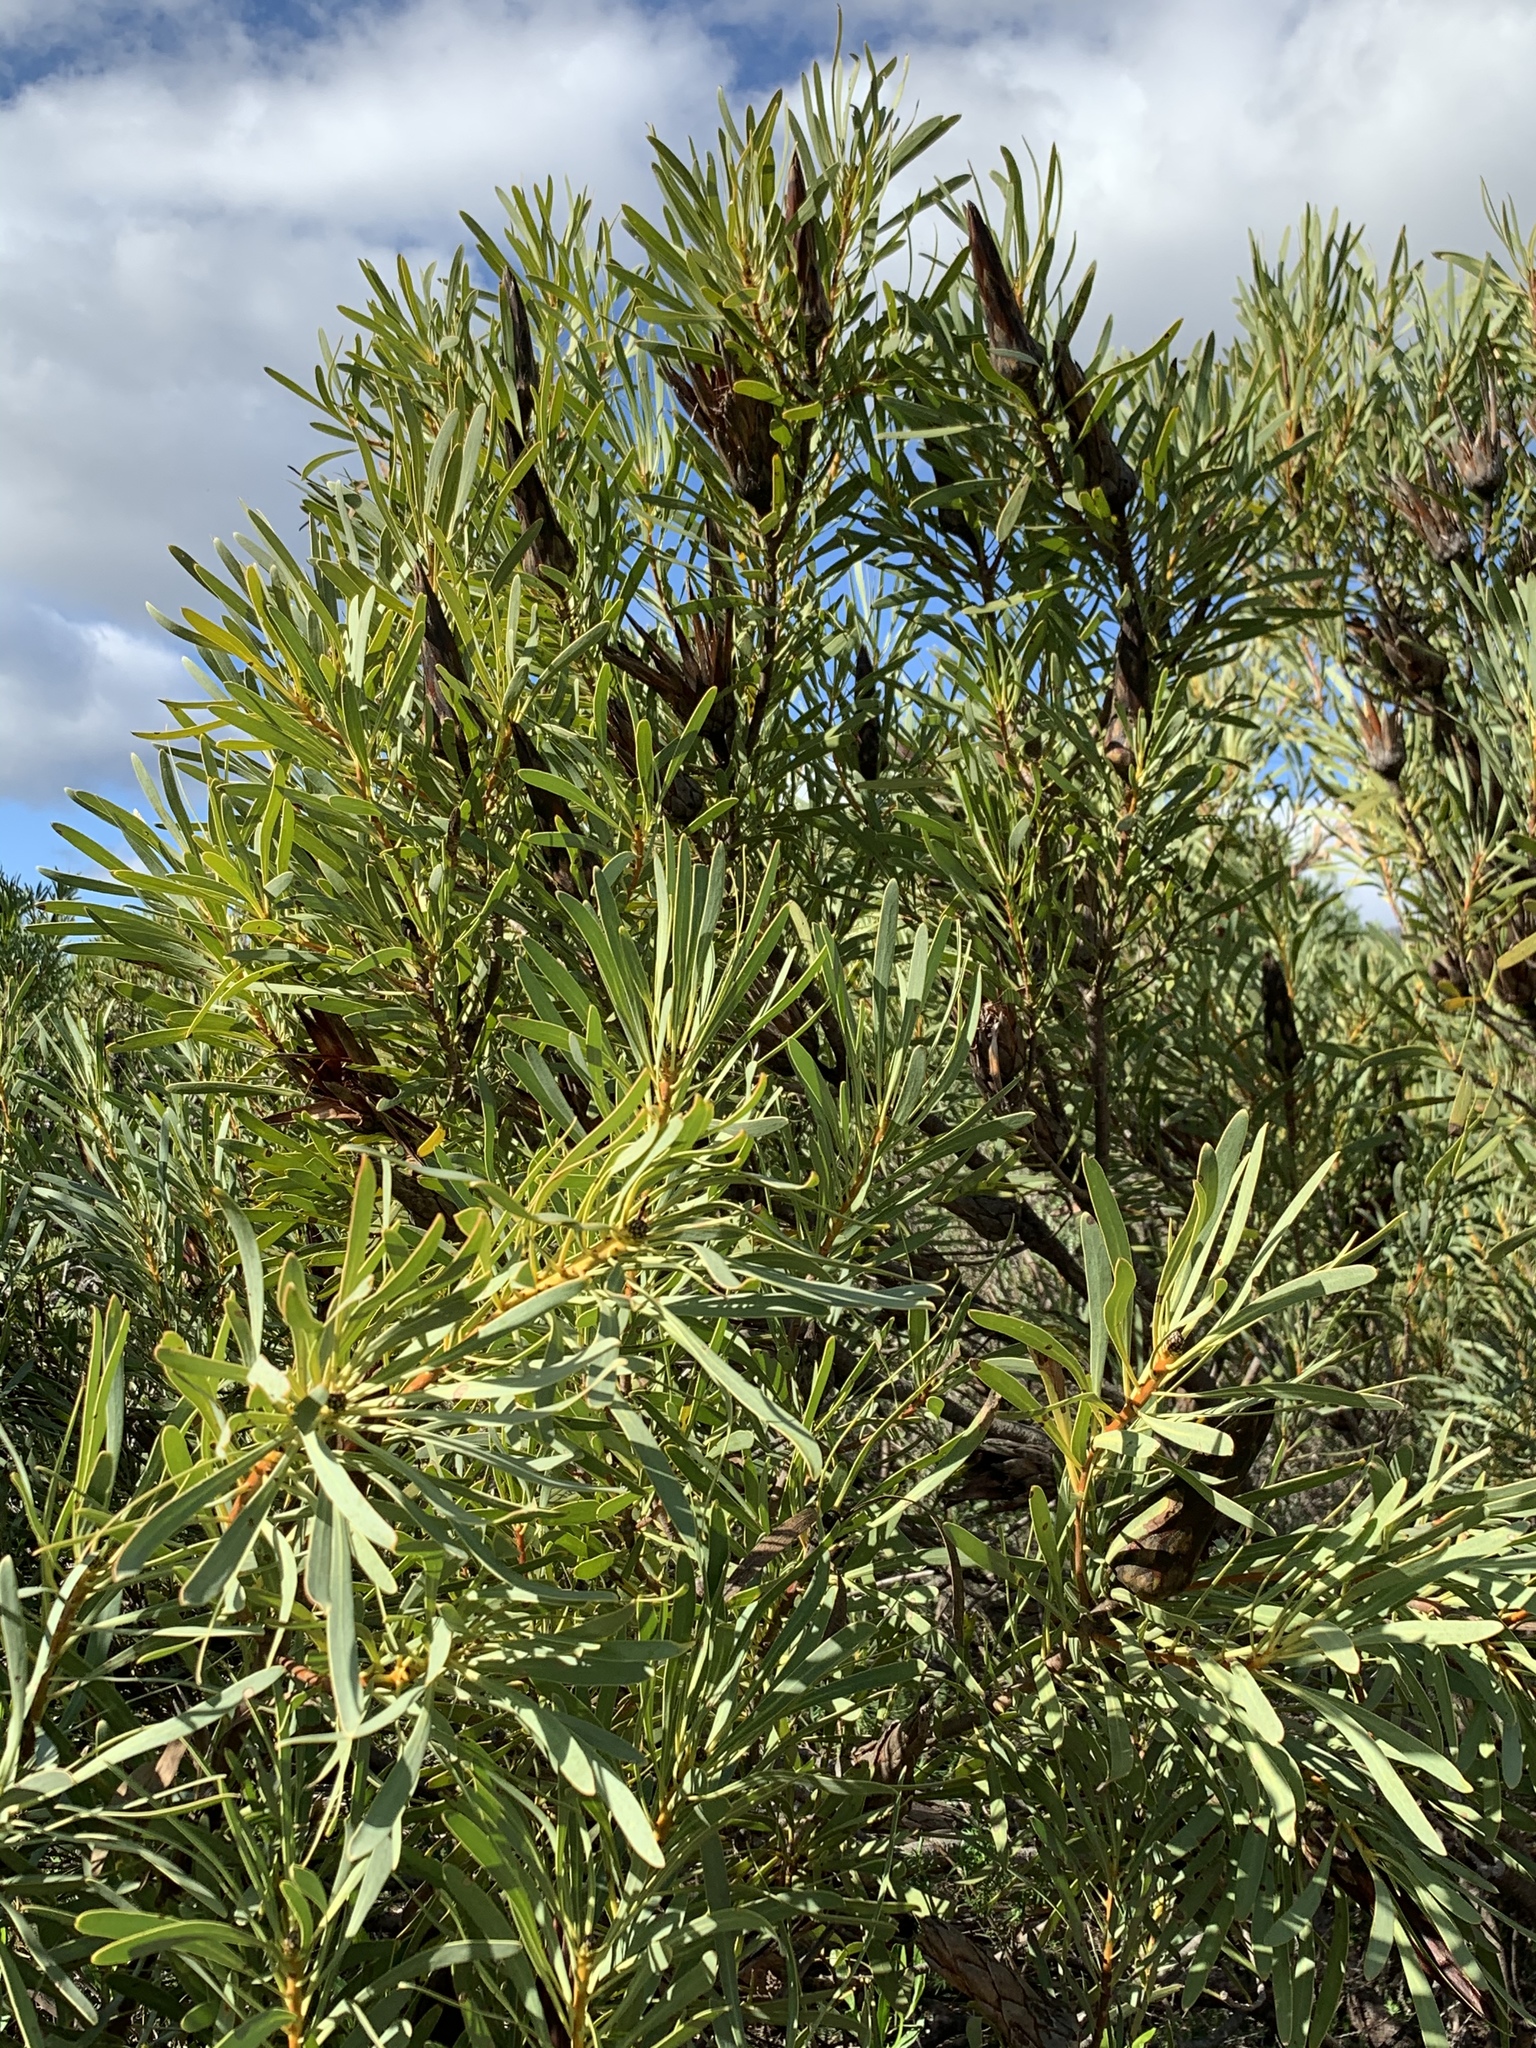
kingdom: Plantae
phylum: Tracheophyta
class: Magnoliopsida
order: Proteales
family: Proteaceae
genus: Protea
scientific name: Protea repens
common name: Sugarbush
